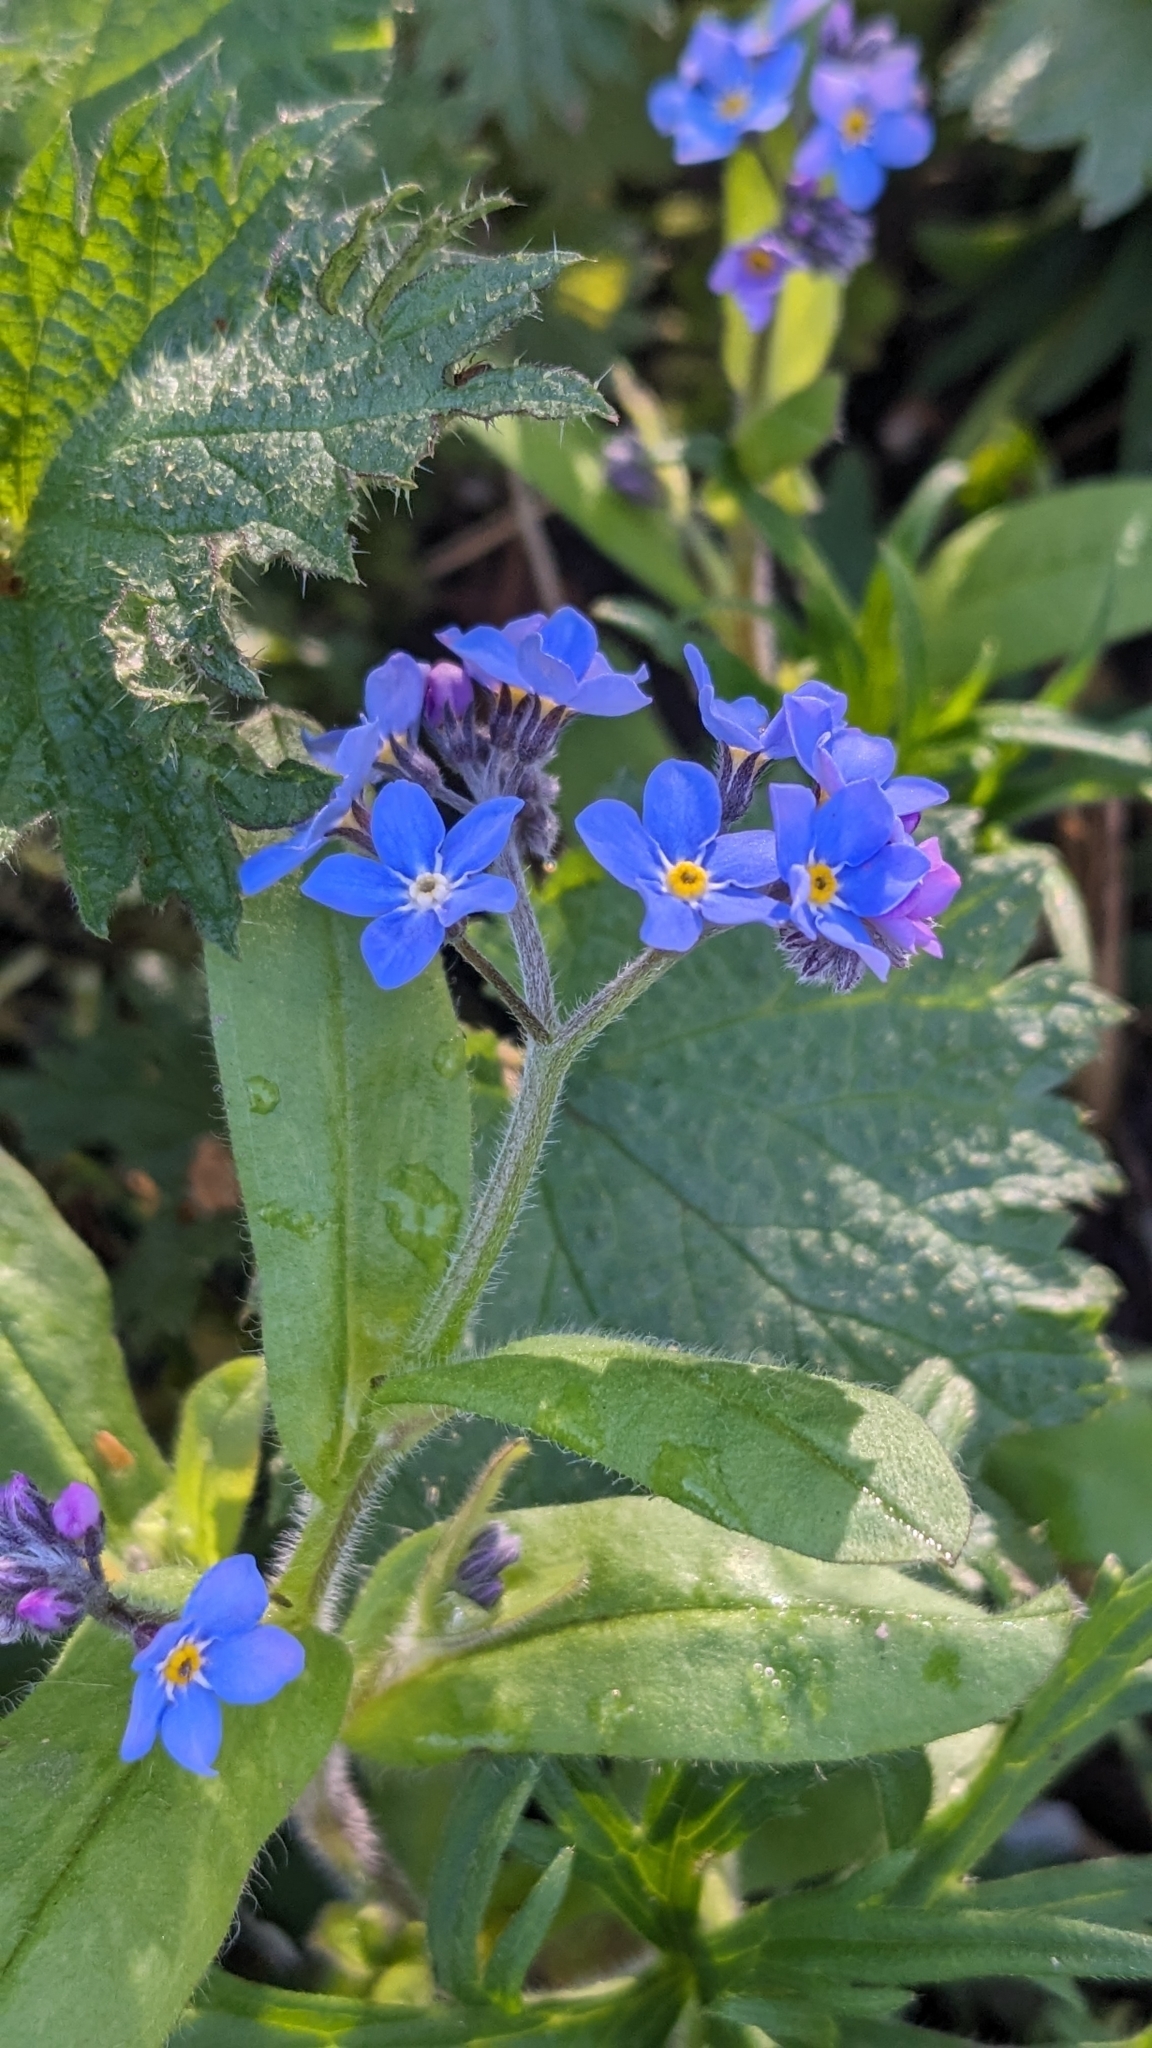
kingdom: Plantae
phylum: Tracheophyta
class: Magnoliopsida
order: Boraginales
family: Boraginaceae
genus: Myosotis
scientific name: Myosotis sylvatica
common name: Wood forget-me-not
